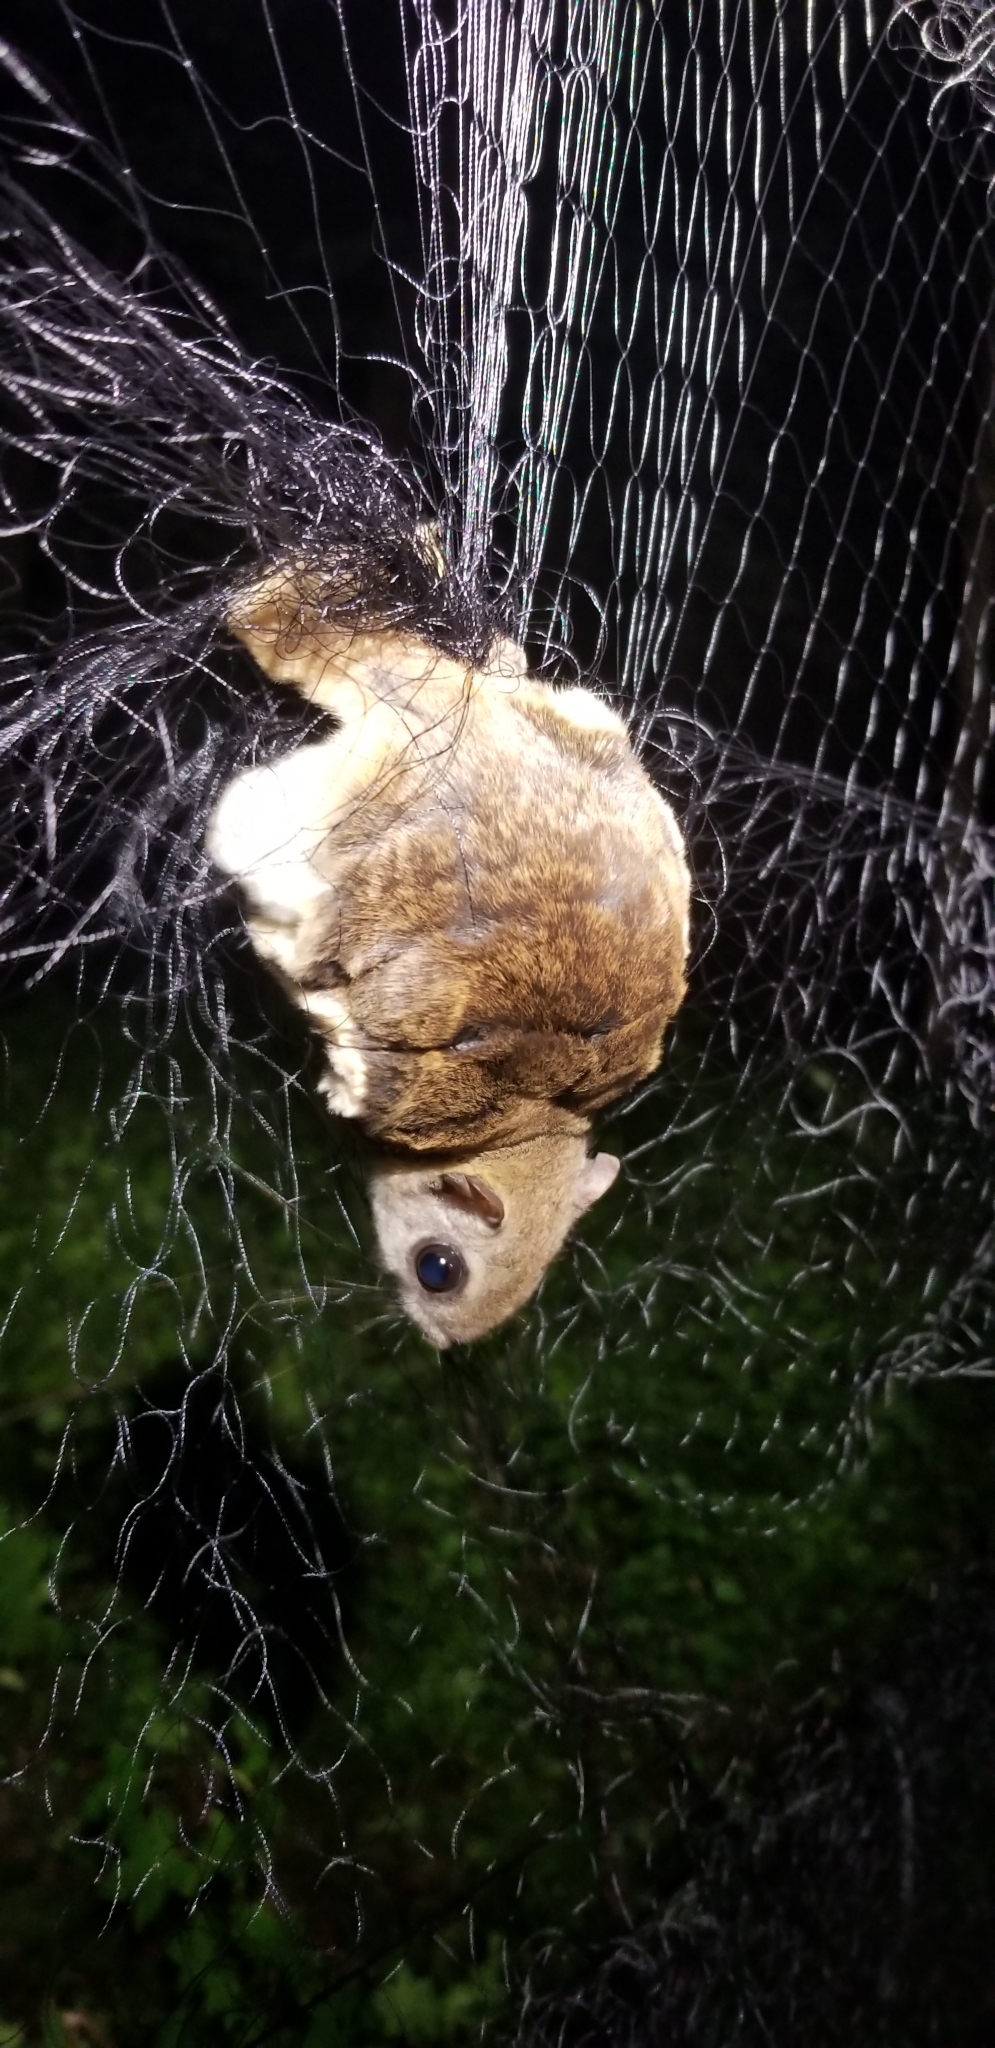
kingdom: Animalia
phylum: Chordata
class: Mammalia
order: Rodentia
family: Sciuridae
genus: Glaucomys
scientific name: Glaucomys volans
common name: Southern flying squirrel
